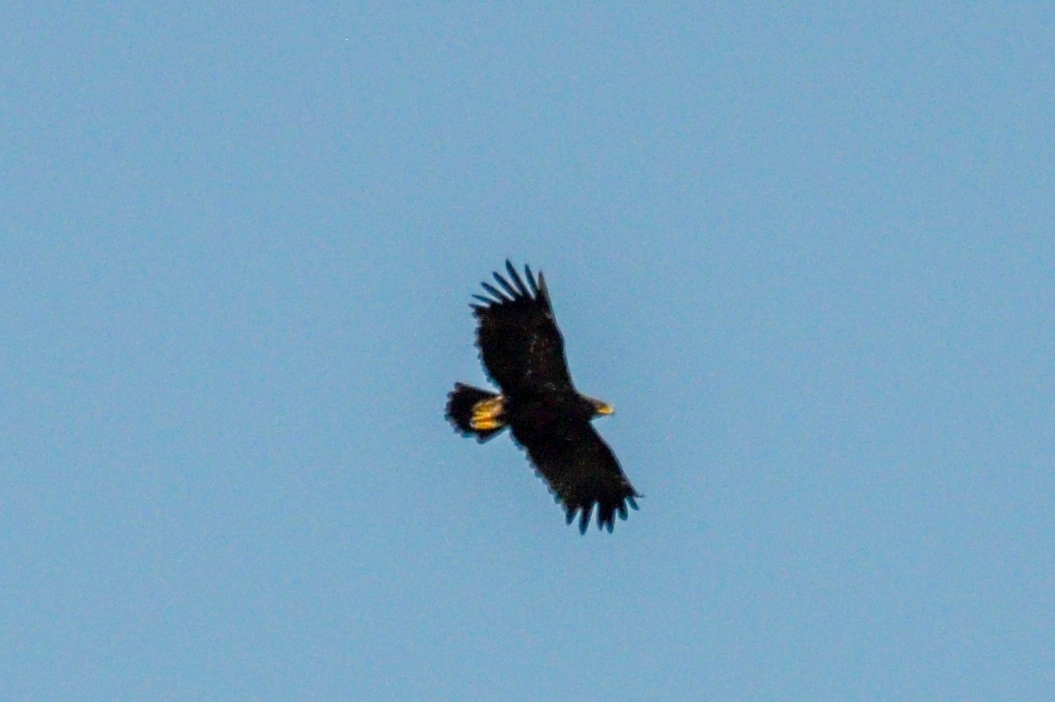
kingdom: Animalia
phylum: Chordata
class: Aves
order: Accipitriformes
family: Accipitridae
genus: Aquila
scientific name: Aquila clanga
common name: Greater spotted eagle
